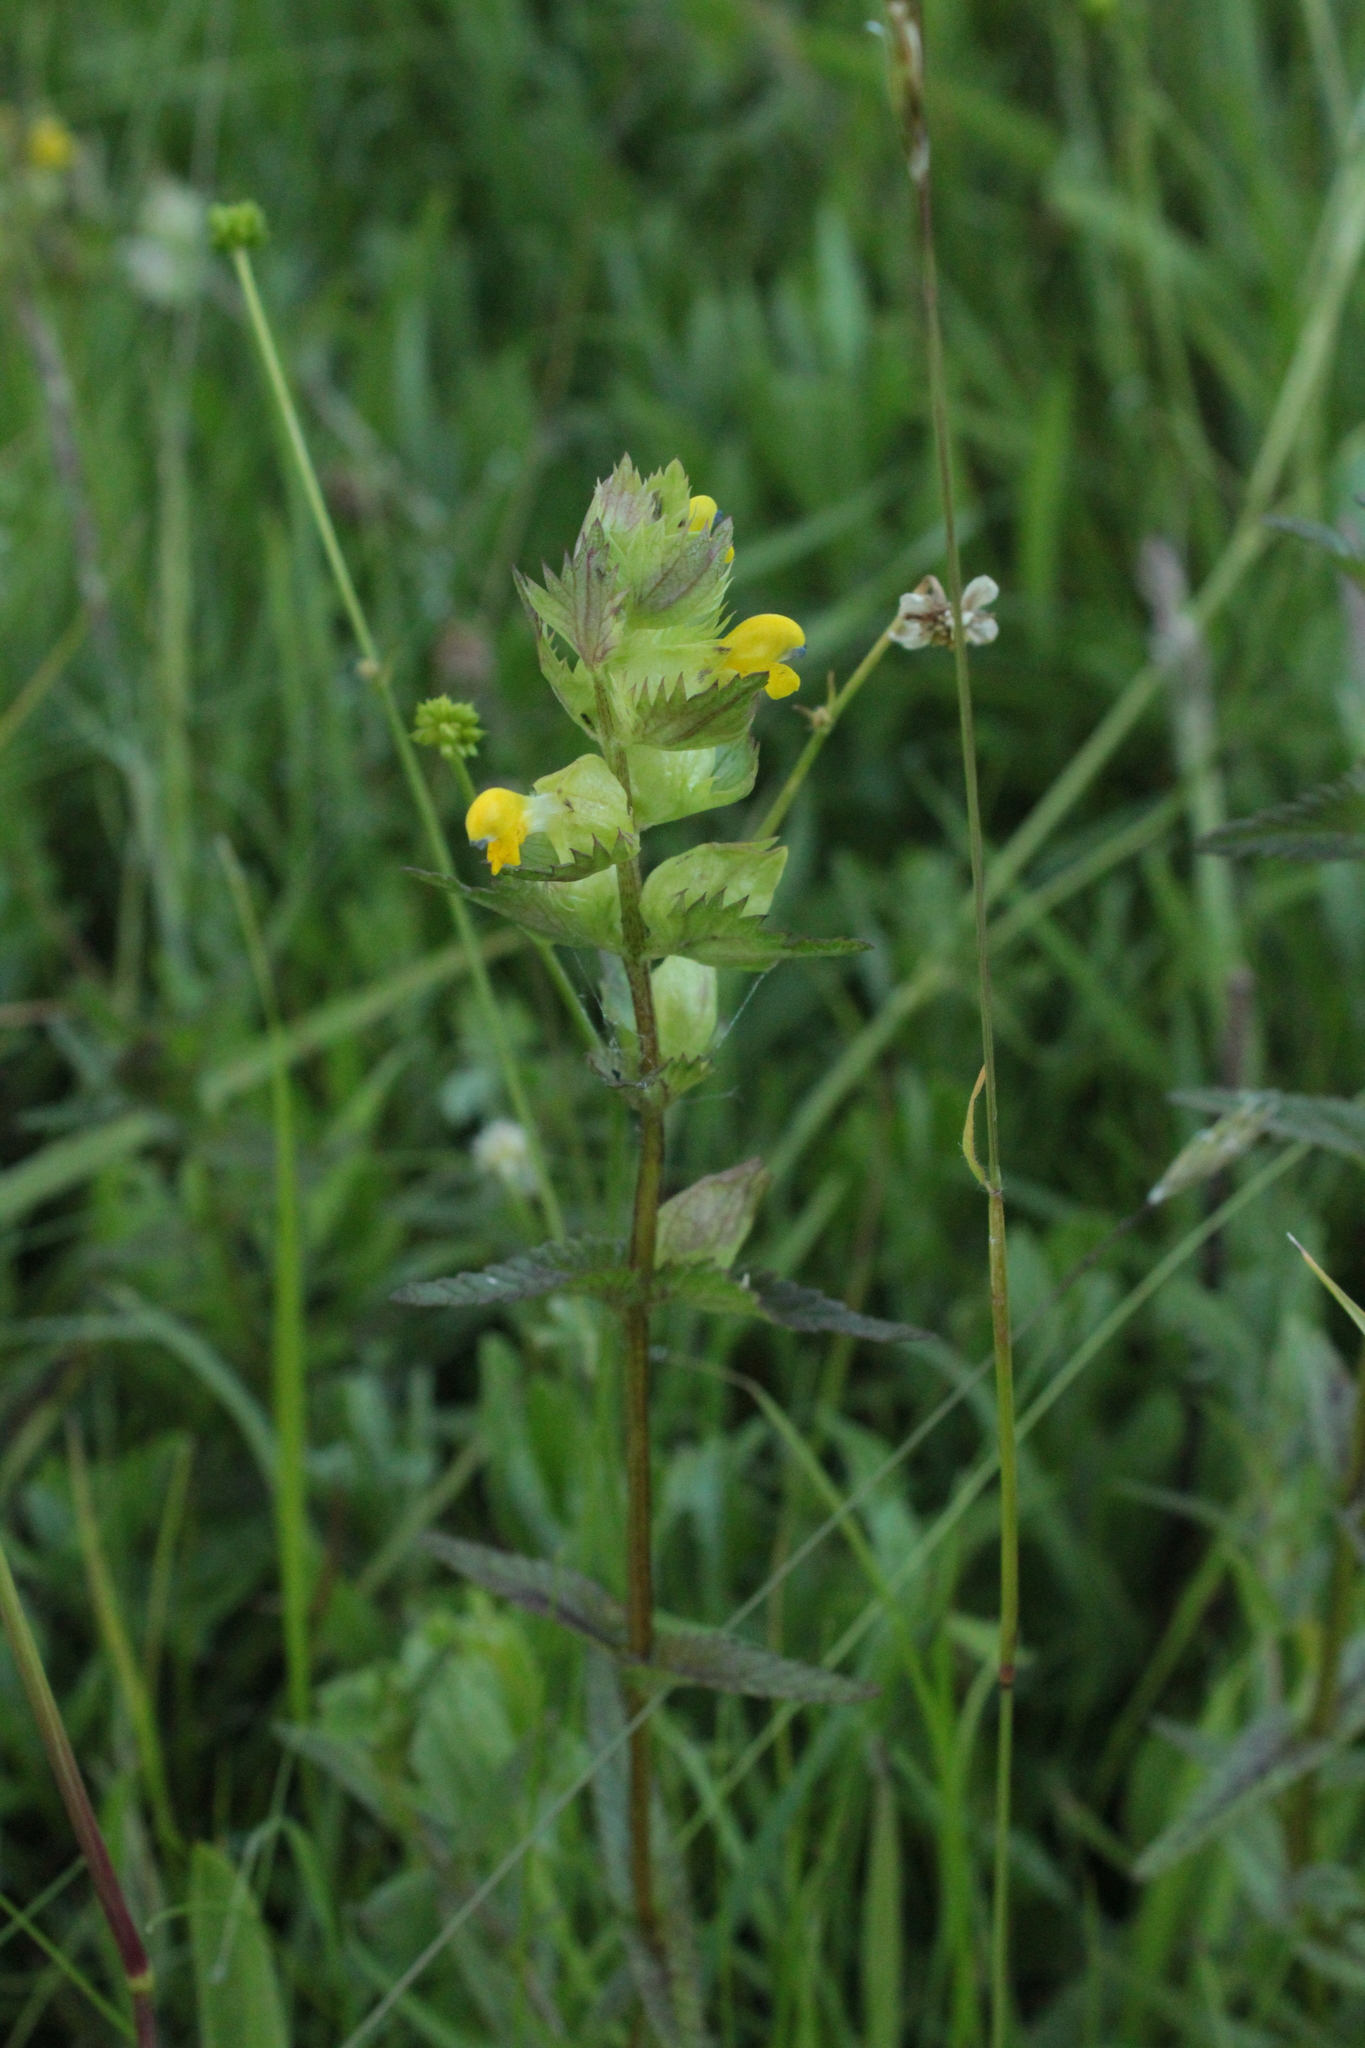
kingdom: Plantae
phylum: Tracheophyta
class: Magnoliopsida
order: Lamiales
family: Orobanchaceae
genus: Rhinanthus
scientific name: Rhinanthus minor
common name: Yellow-rattle
